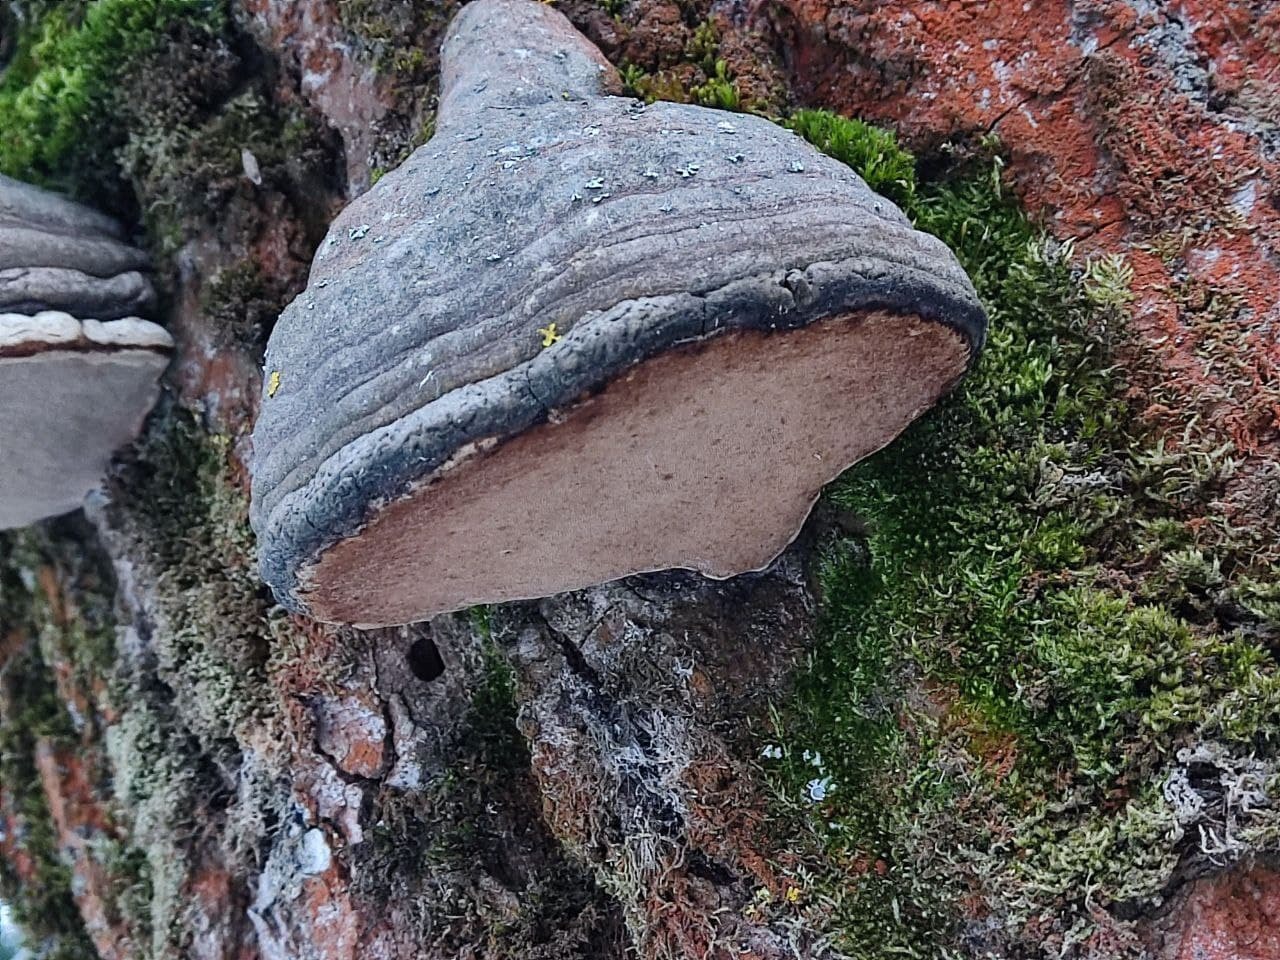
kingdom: Fungi
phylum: Basidiomycota
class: Agaricomycetes
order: Polyporales
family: Polyporaceae
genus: Fomes
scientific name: Fomes fomentarius
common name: Hoof fungus
